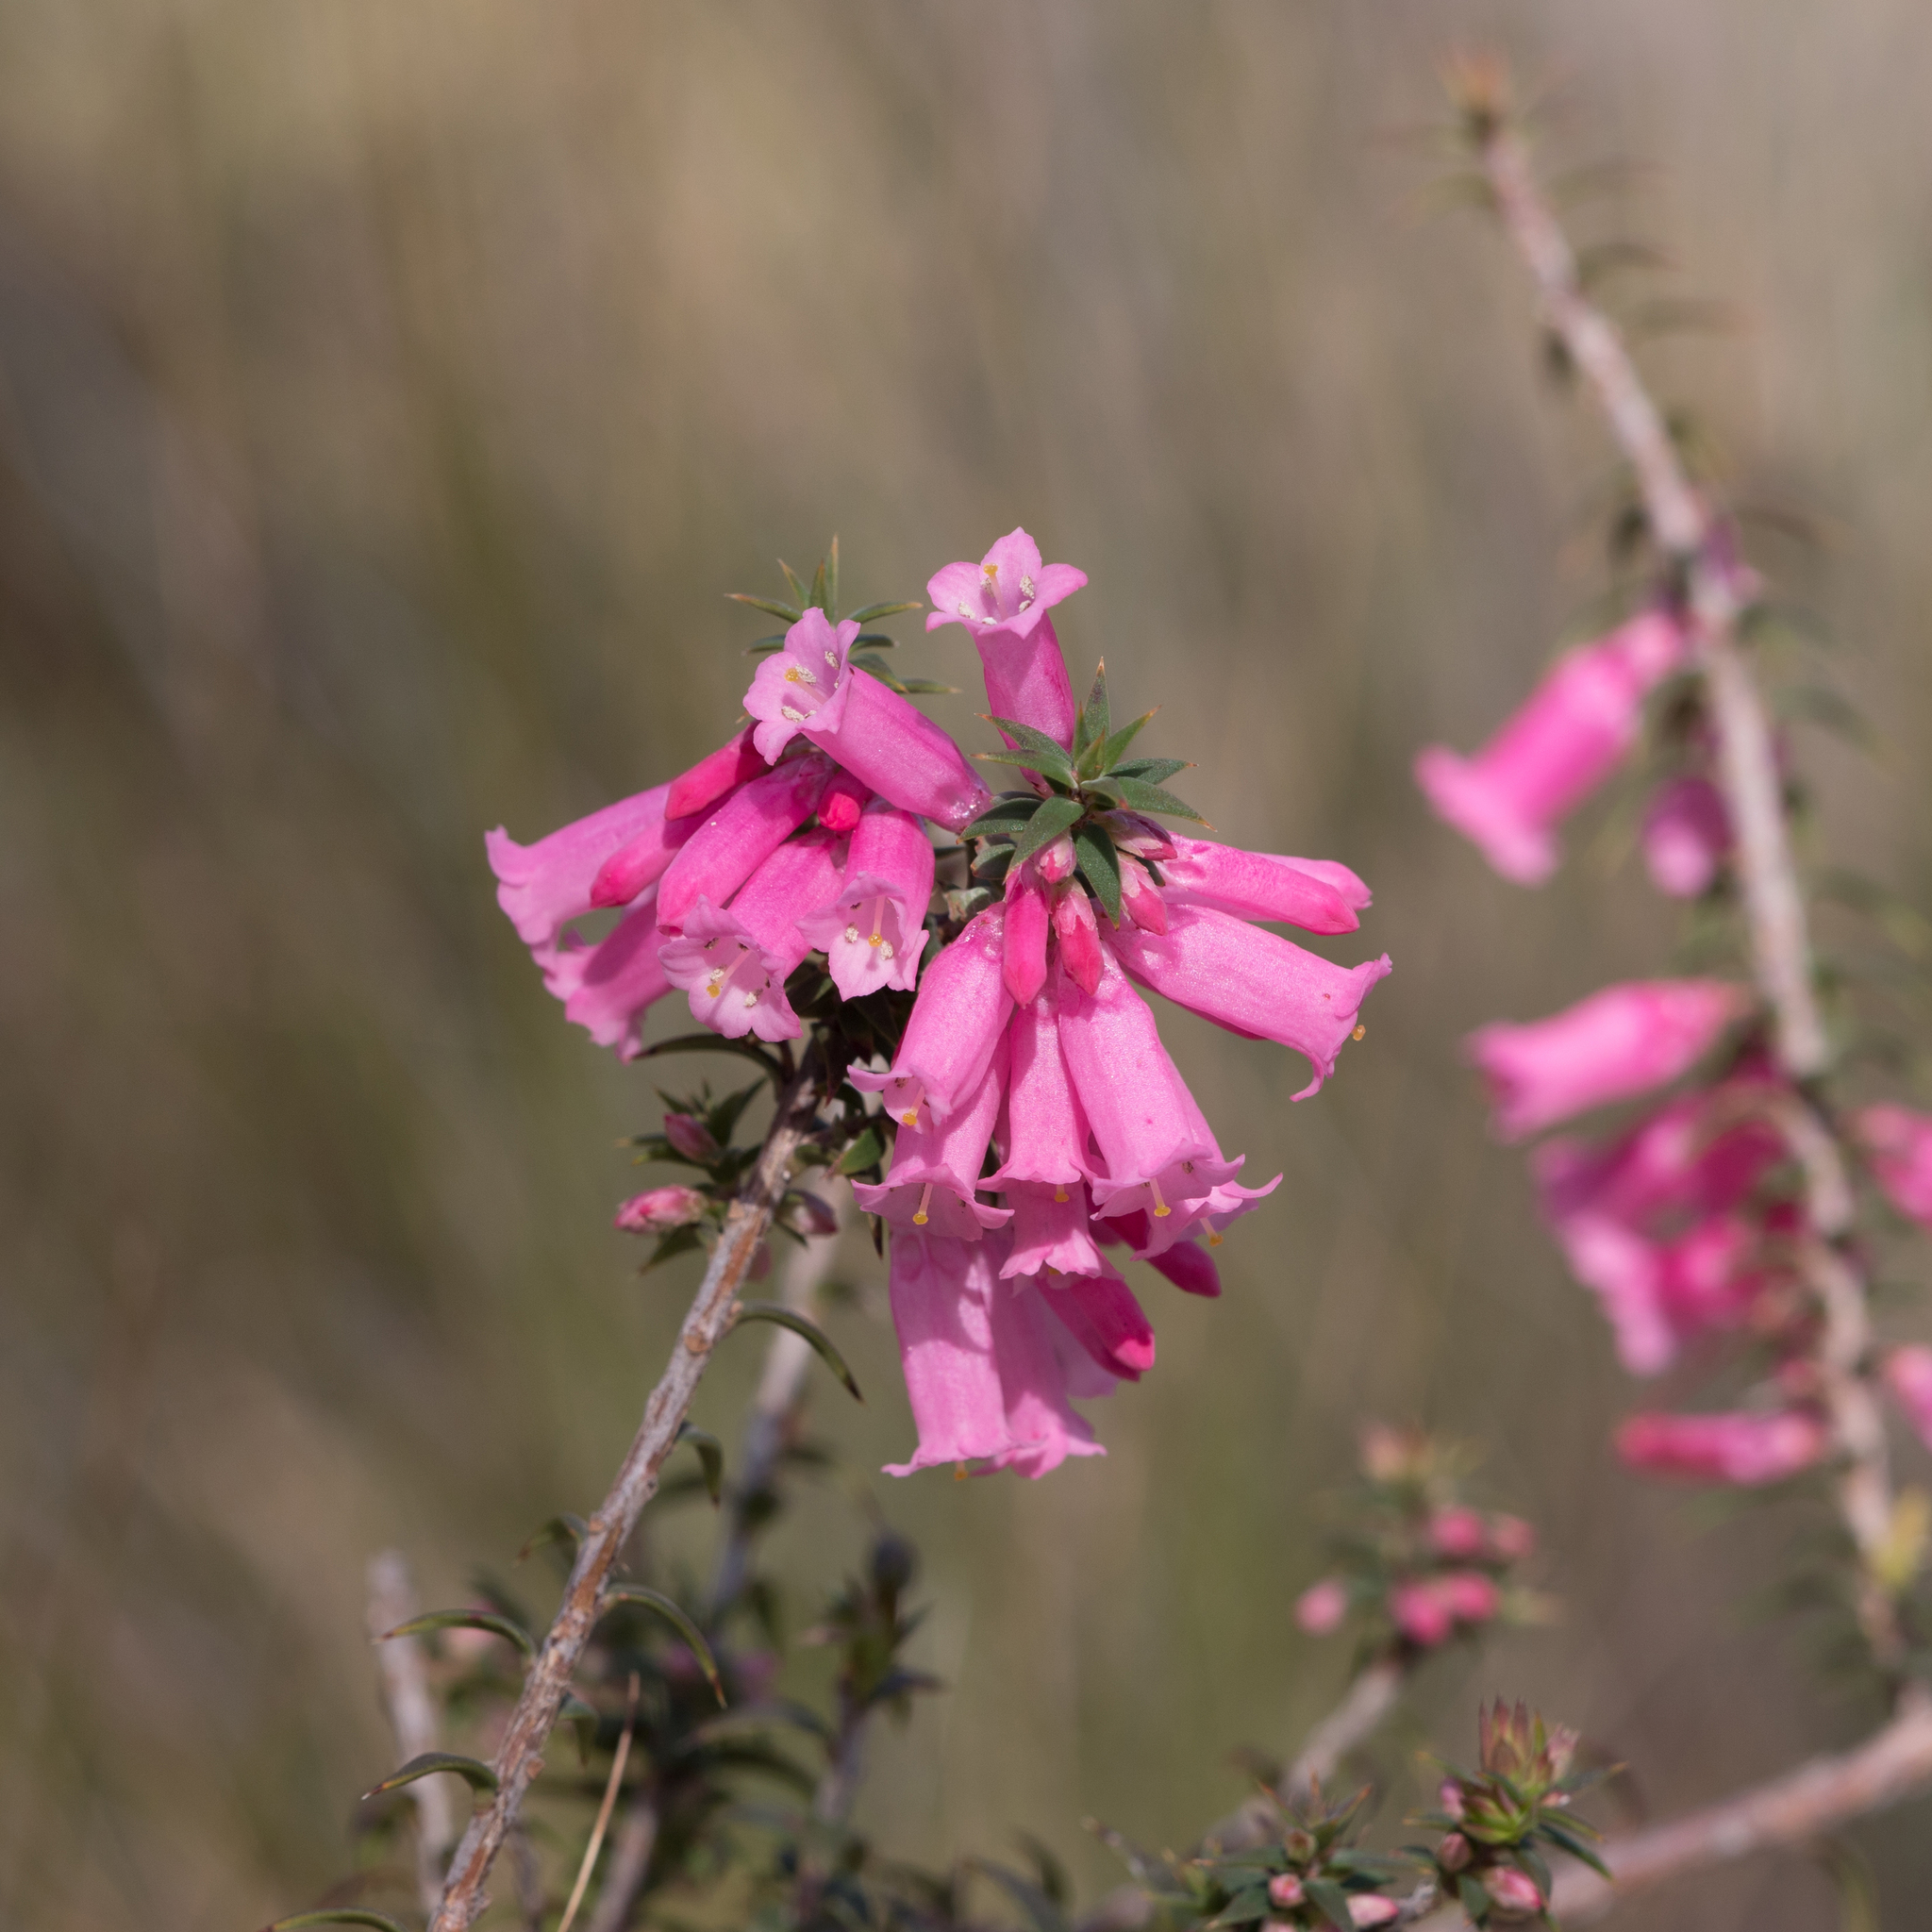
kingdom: Plantae
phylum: Tracheophyta
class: Magnoliopsida
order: Ericales
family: Ericaceae
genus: Epacris
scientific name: Epacris impressa
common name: Common-heath
